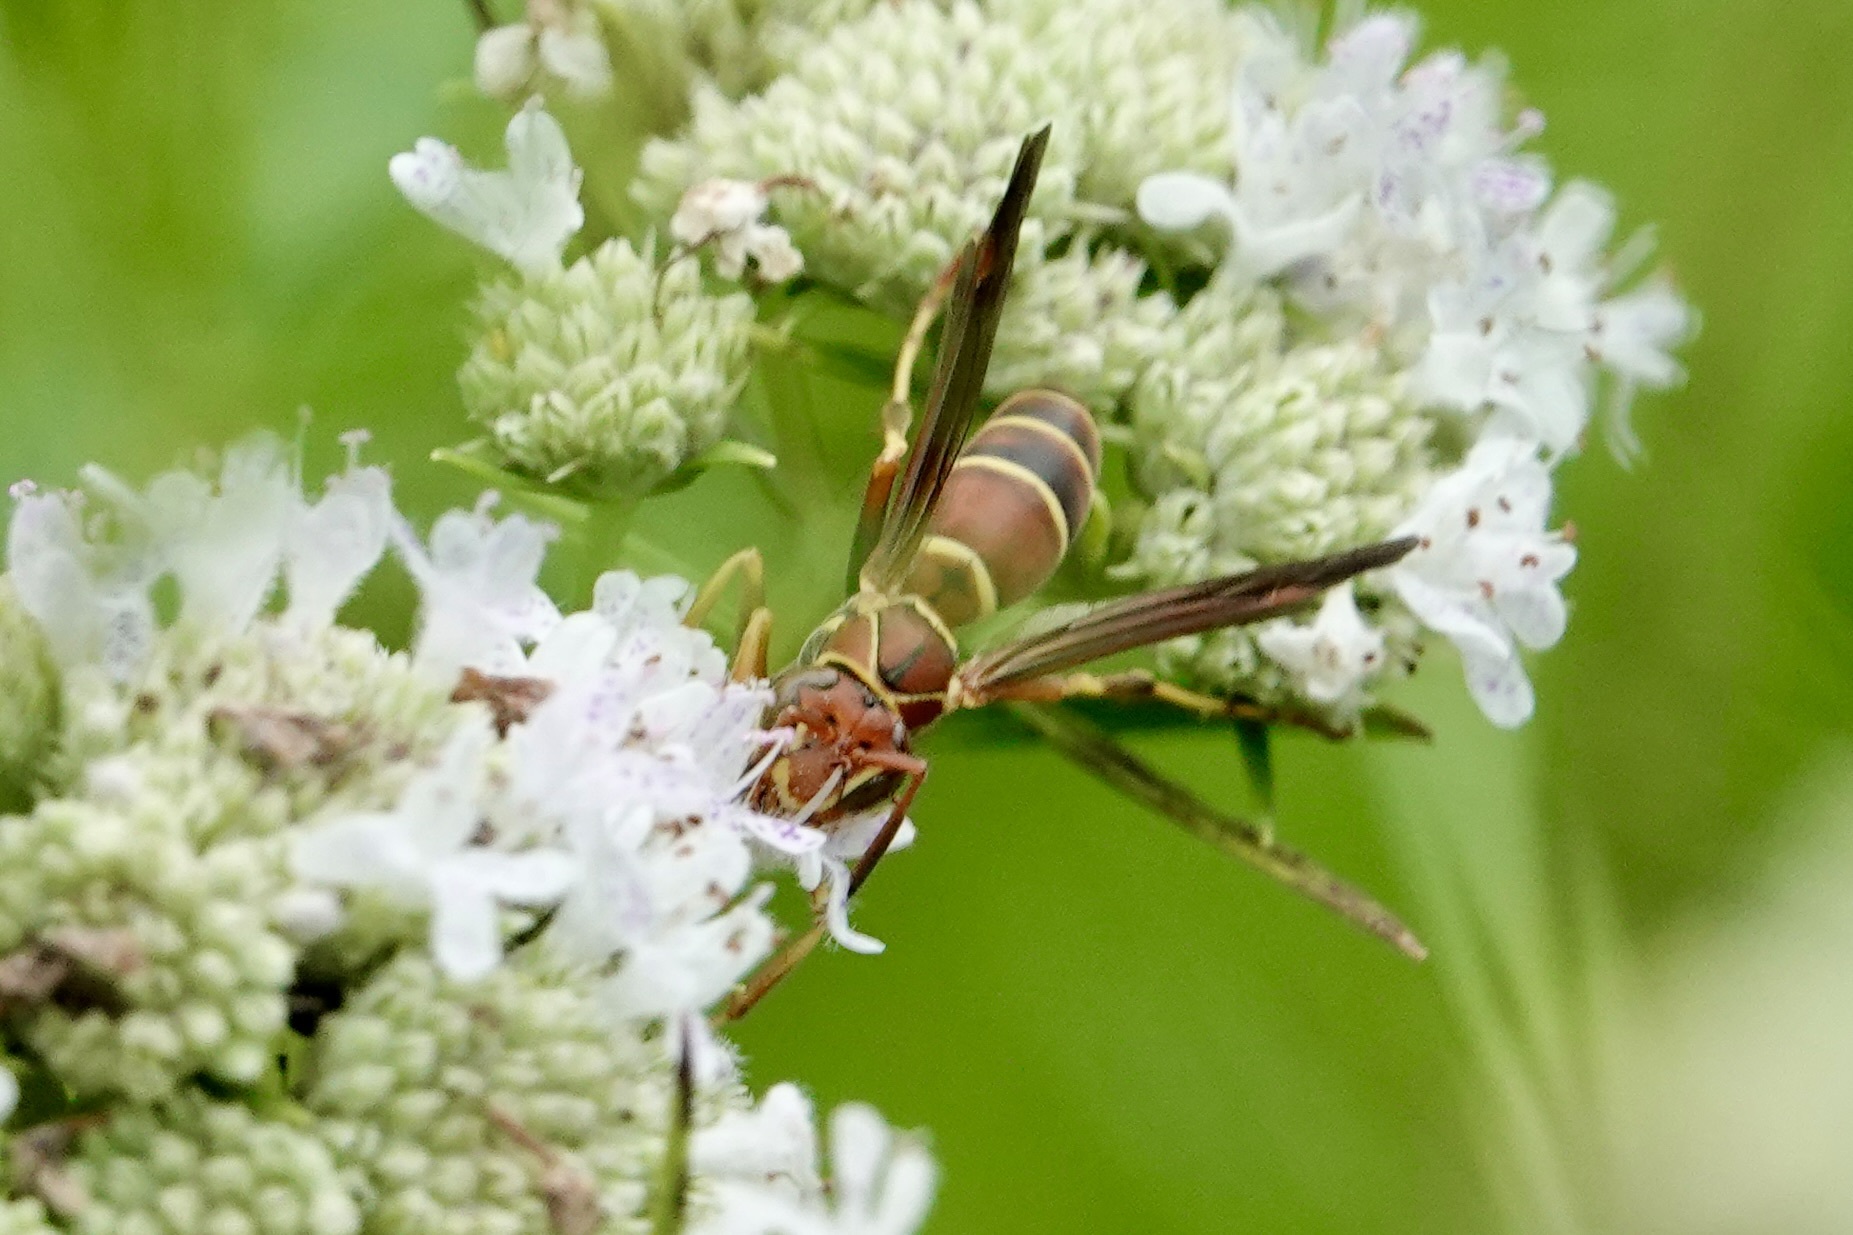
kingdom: Animalia
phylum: Arthropoda
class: Insecta
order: Hymenoptera
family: Eumenidae
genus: Polistes
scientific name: Polistes dorsalis
